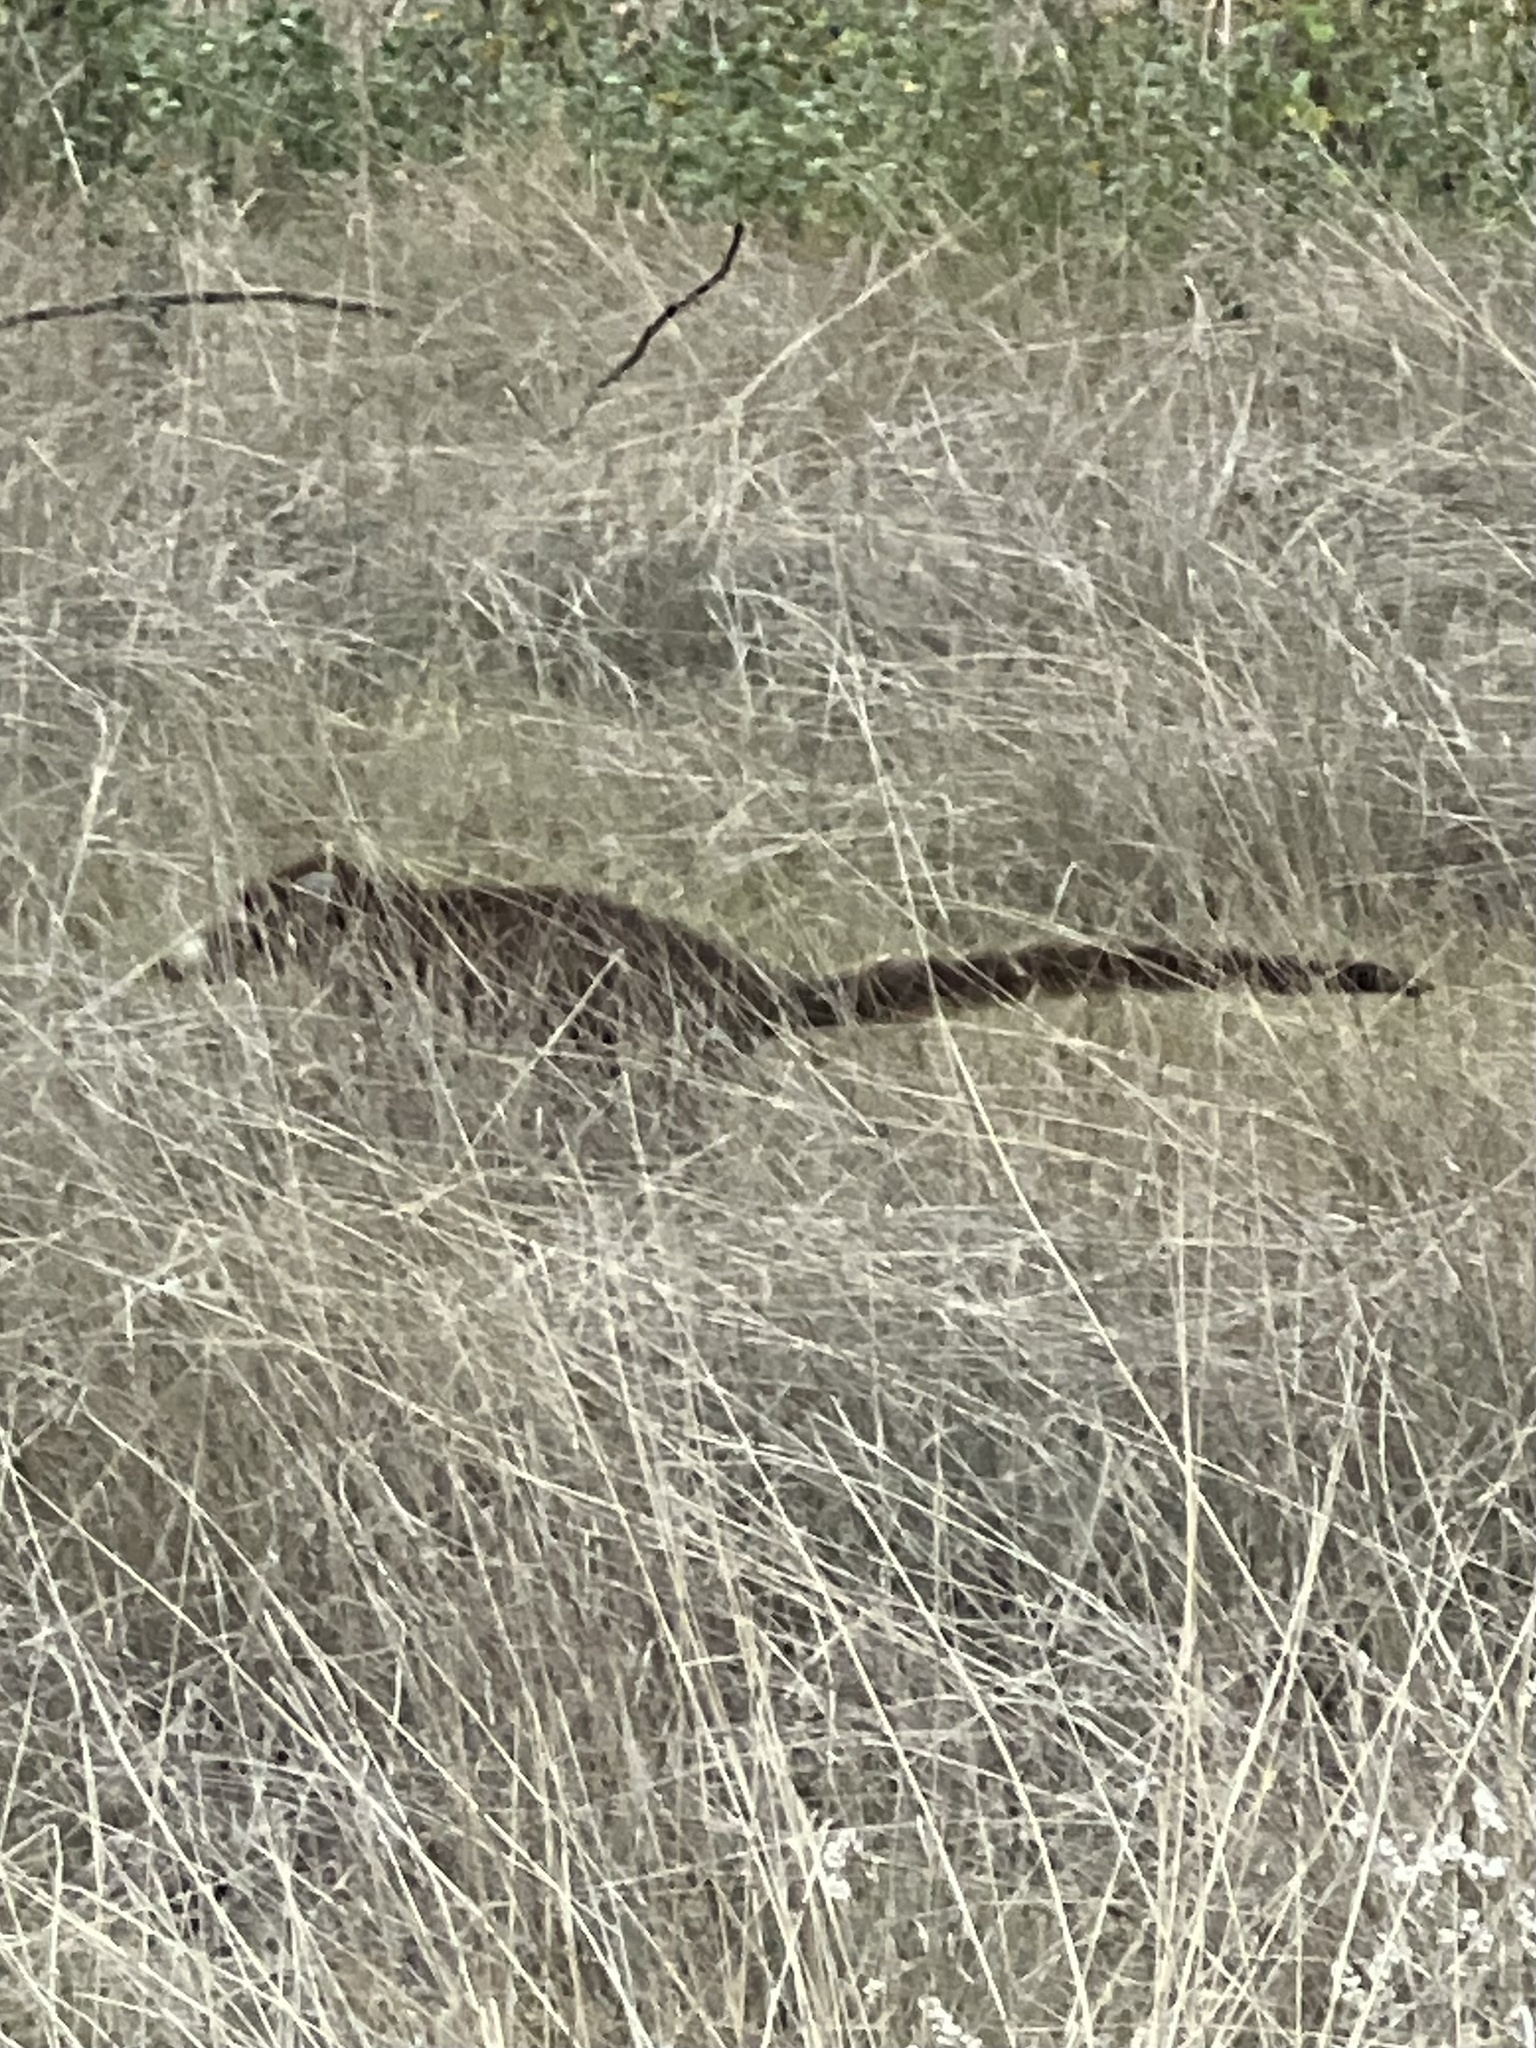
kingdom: Animalia
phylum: Chordata
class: Mammalia
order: Carnivora
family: Procyonidae
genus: Nasua
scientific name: Nasua narica
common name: White-nosed coati
